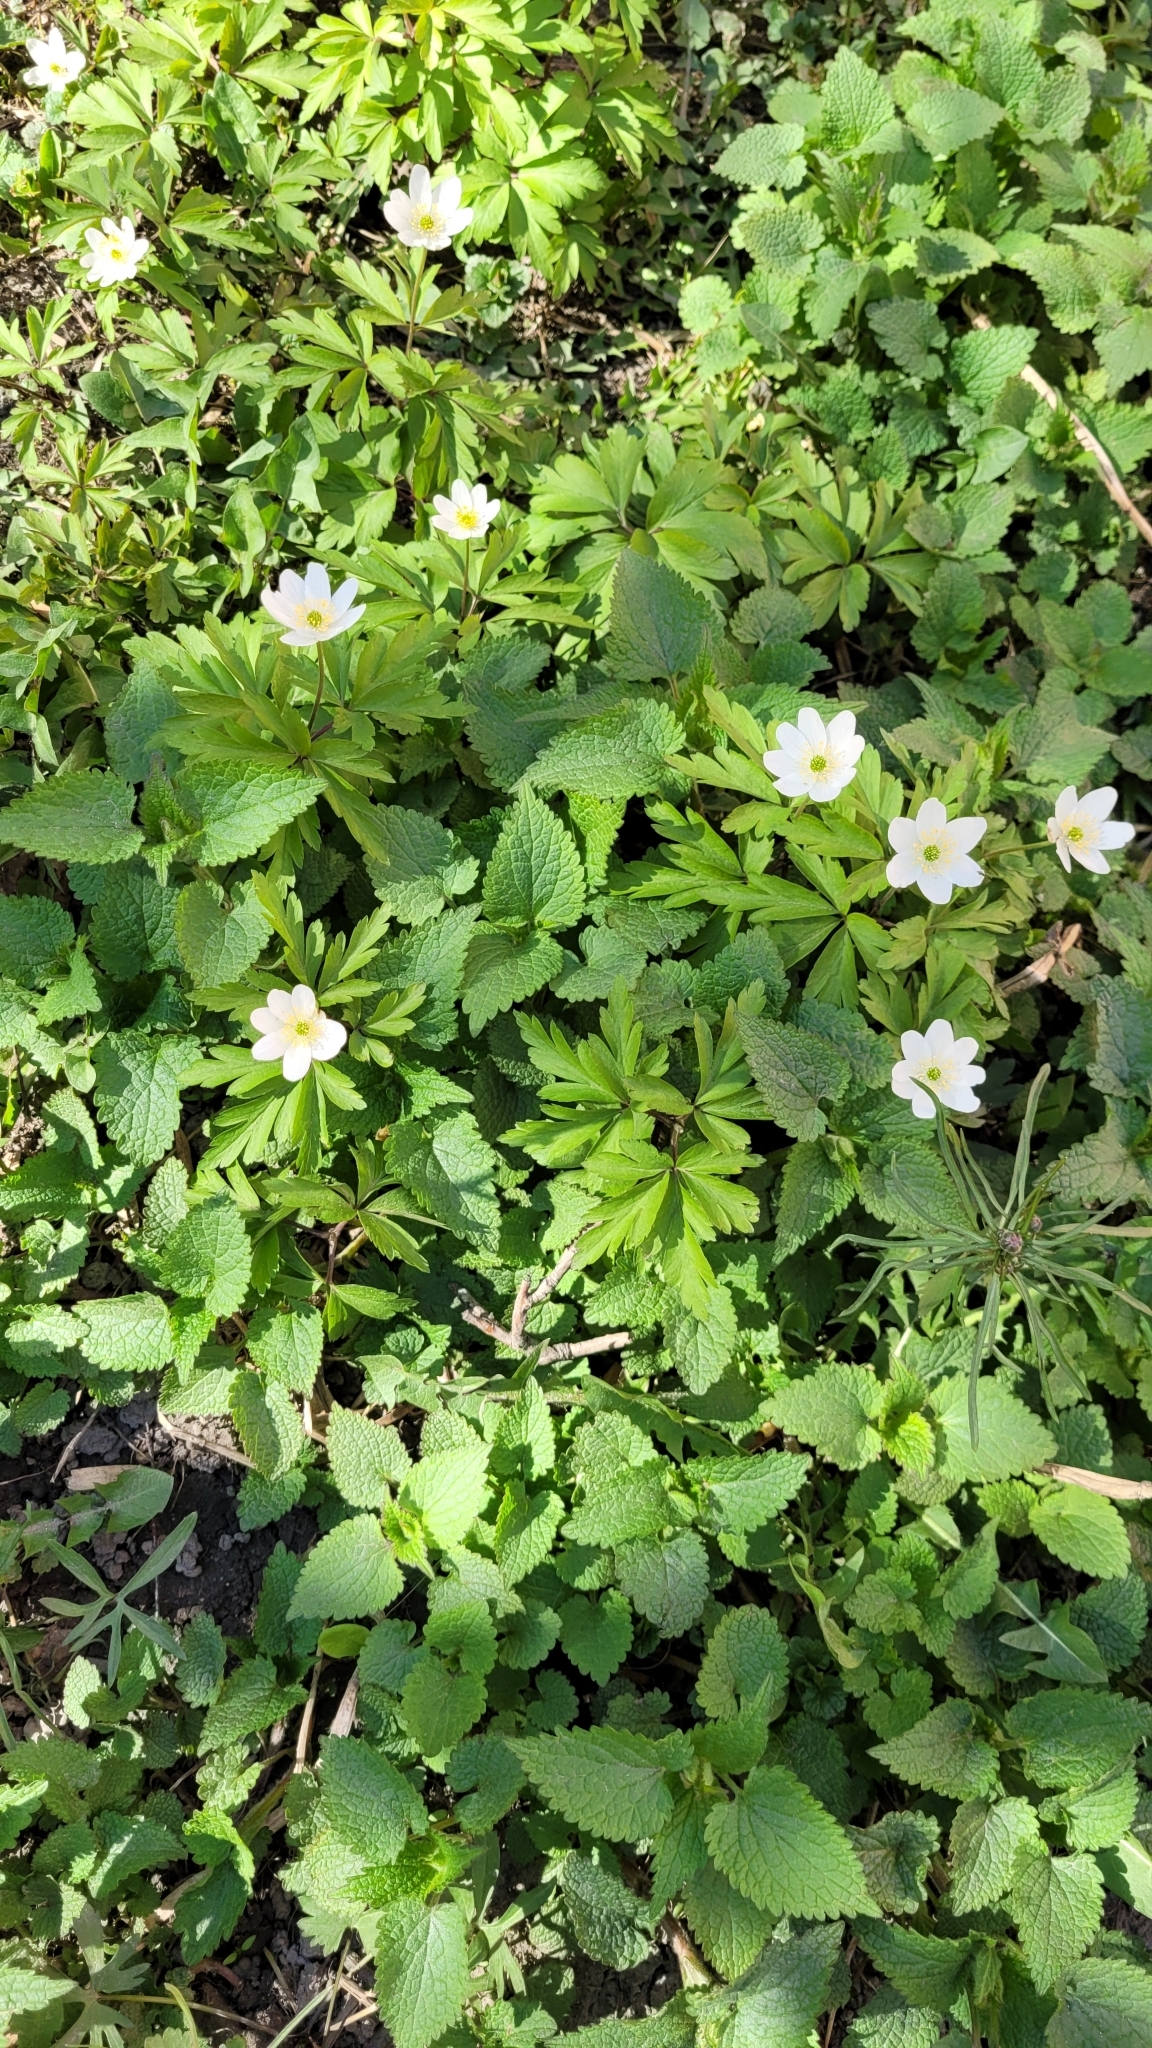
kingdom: Plantae
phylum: Tracheophyta
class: Magnoliopsida
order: Ranunculales
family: Ranunculaceae
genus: Anemone
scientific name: Anemone nemorosa
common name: Wood anemone
